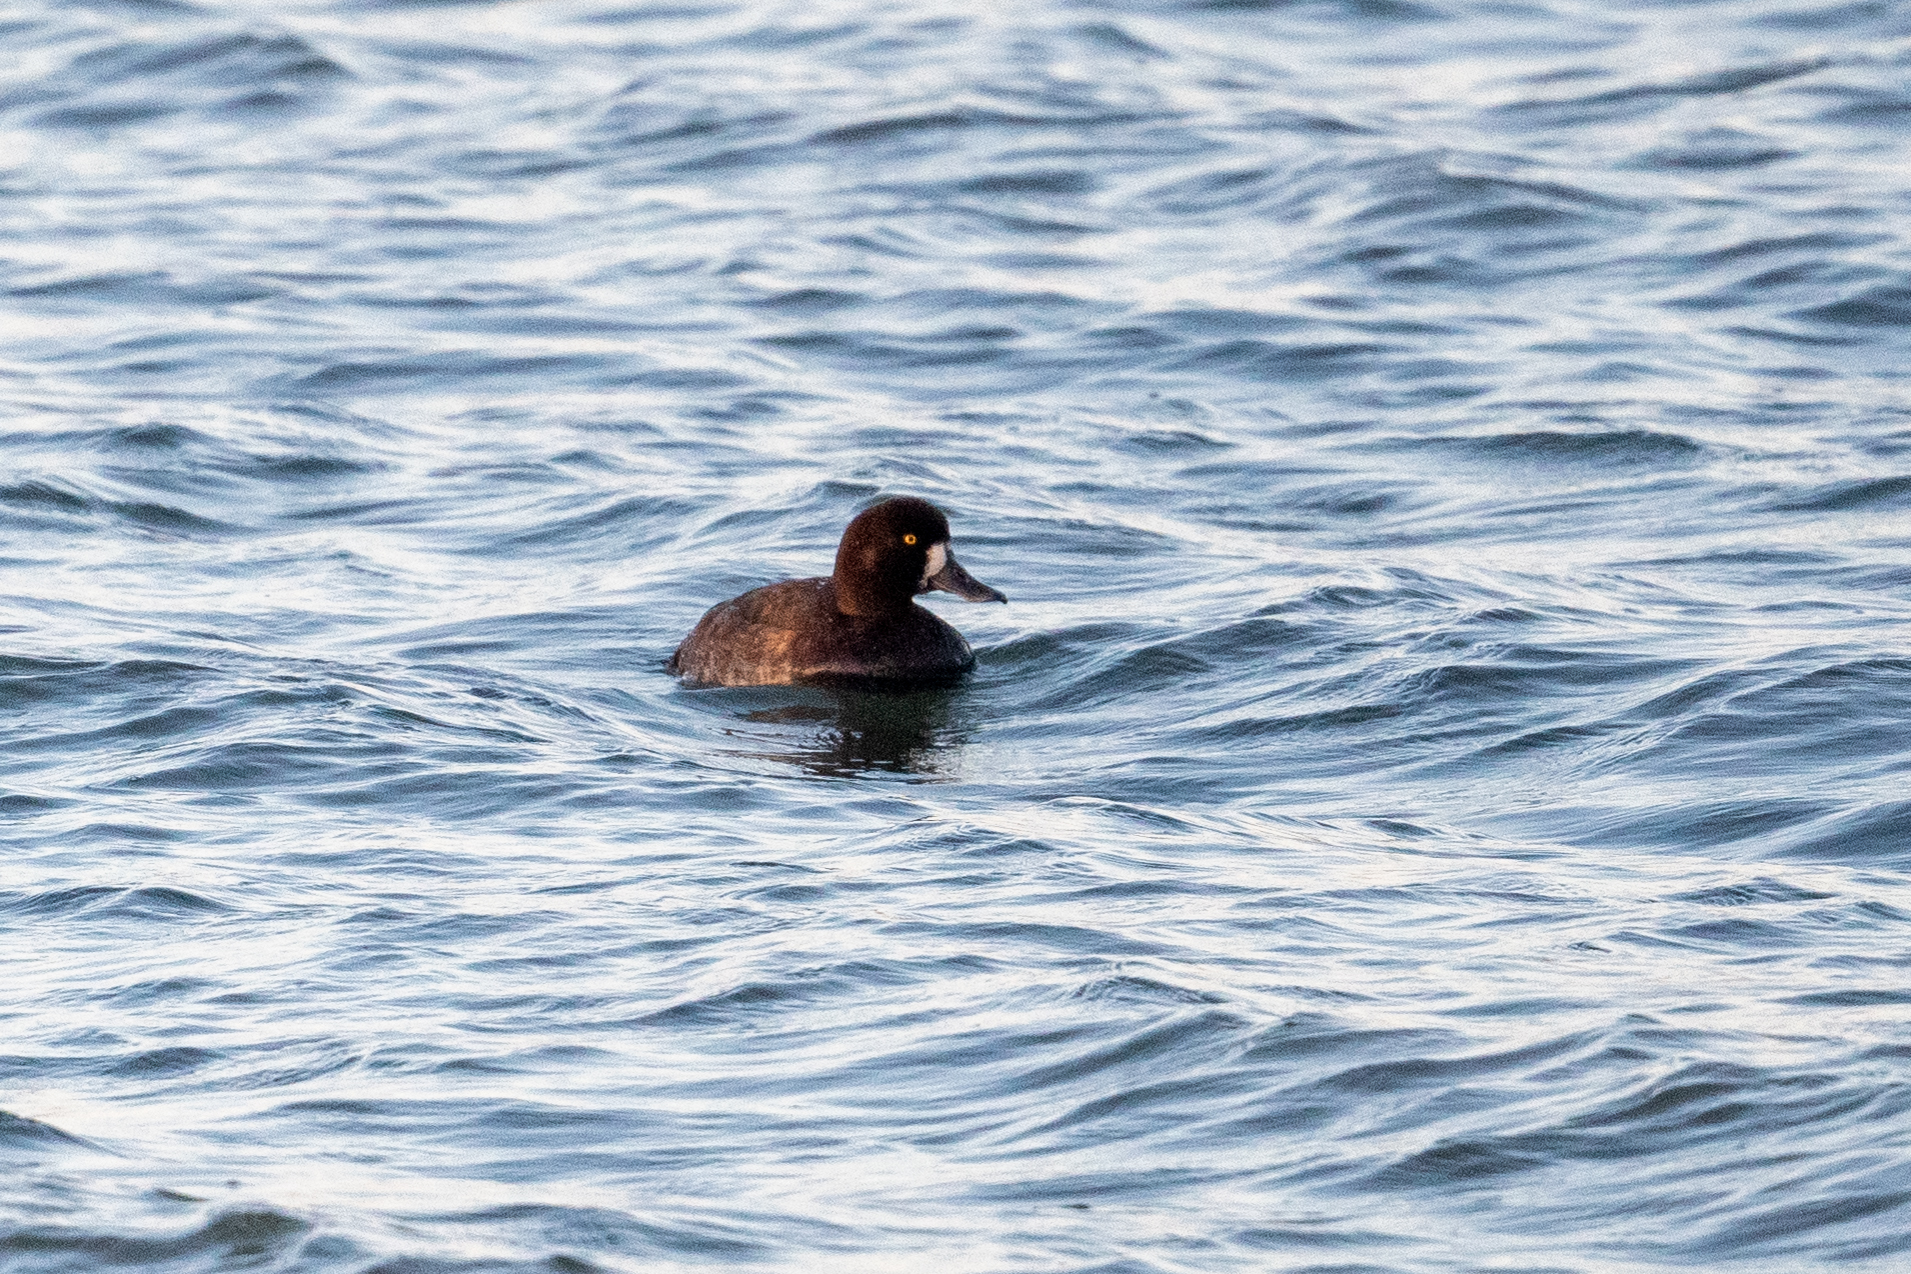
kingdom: Animalia
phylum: Chordata
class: Aves
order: Anseriformes
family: Anatidae
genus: Aythya
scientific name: Aythya marila
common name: Greater scaup
